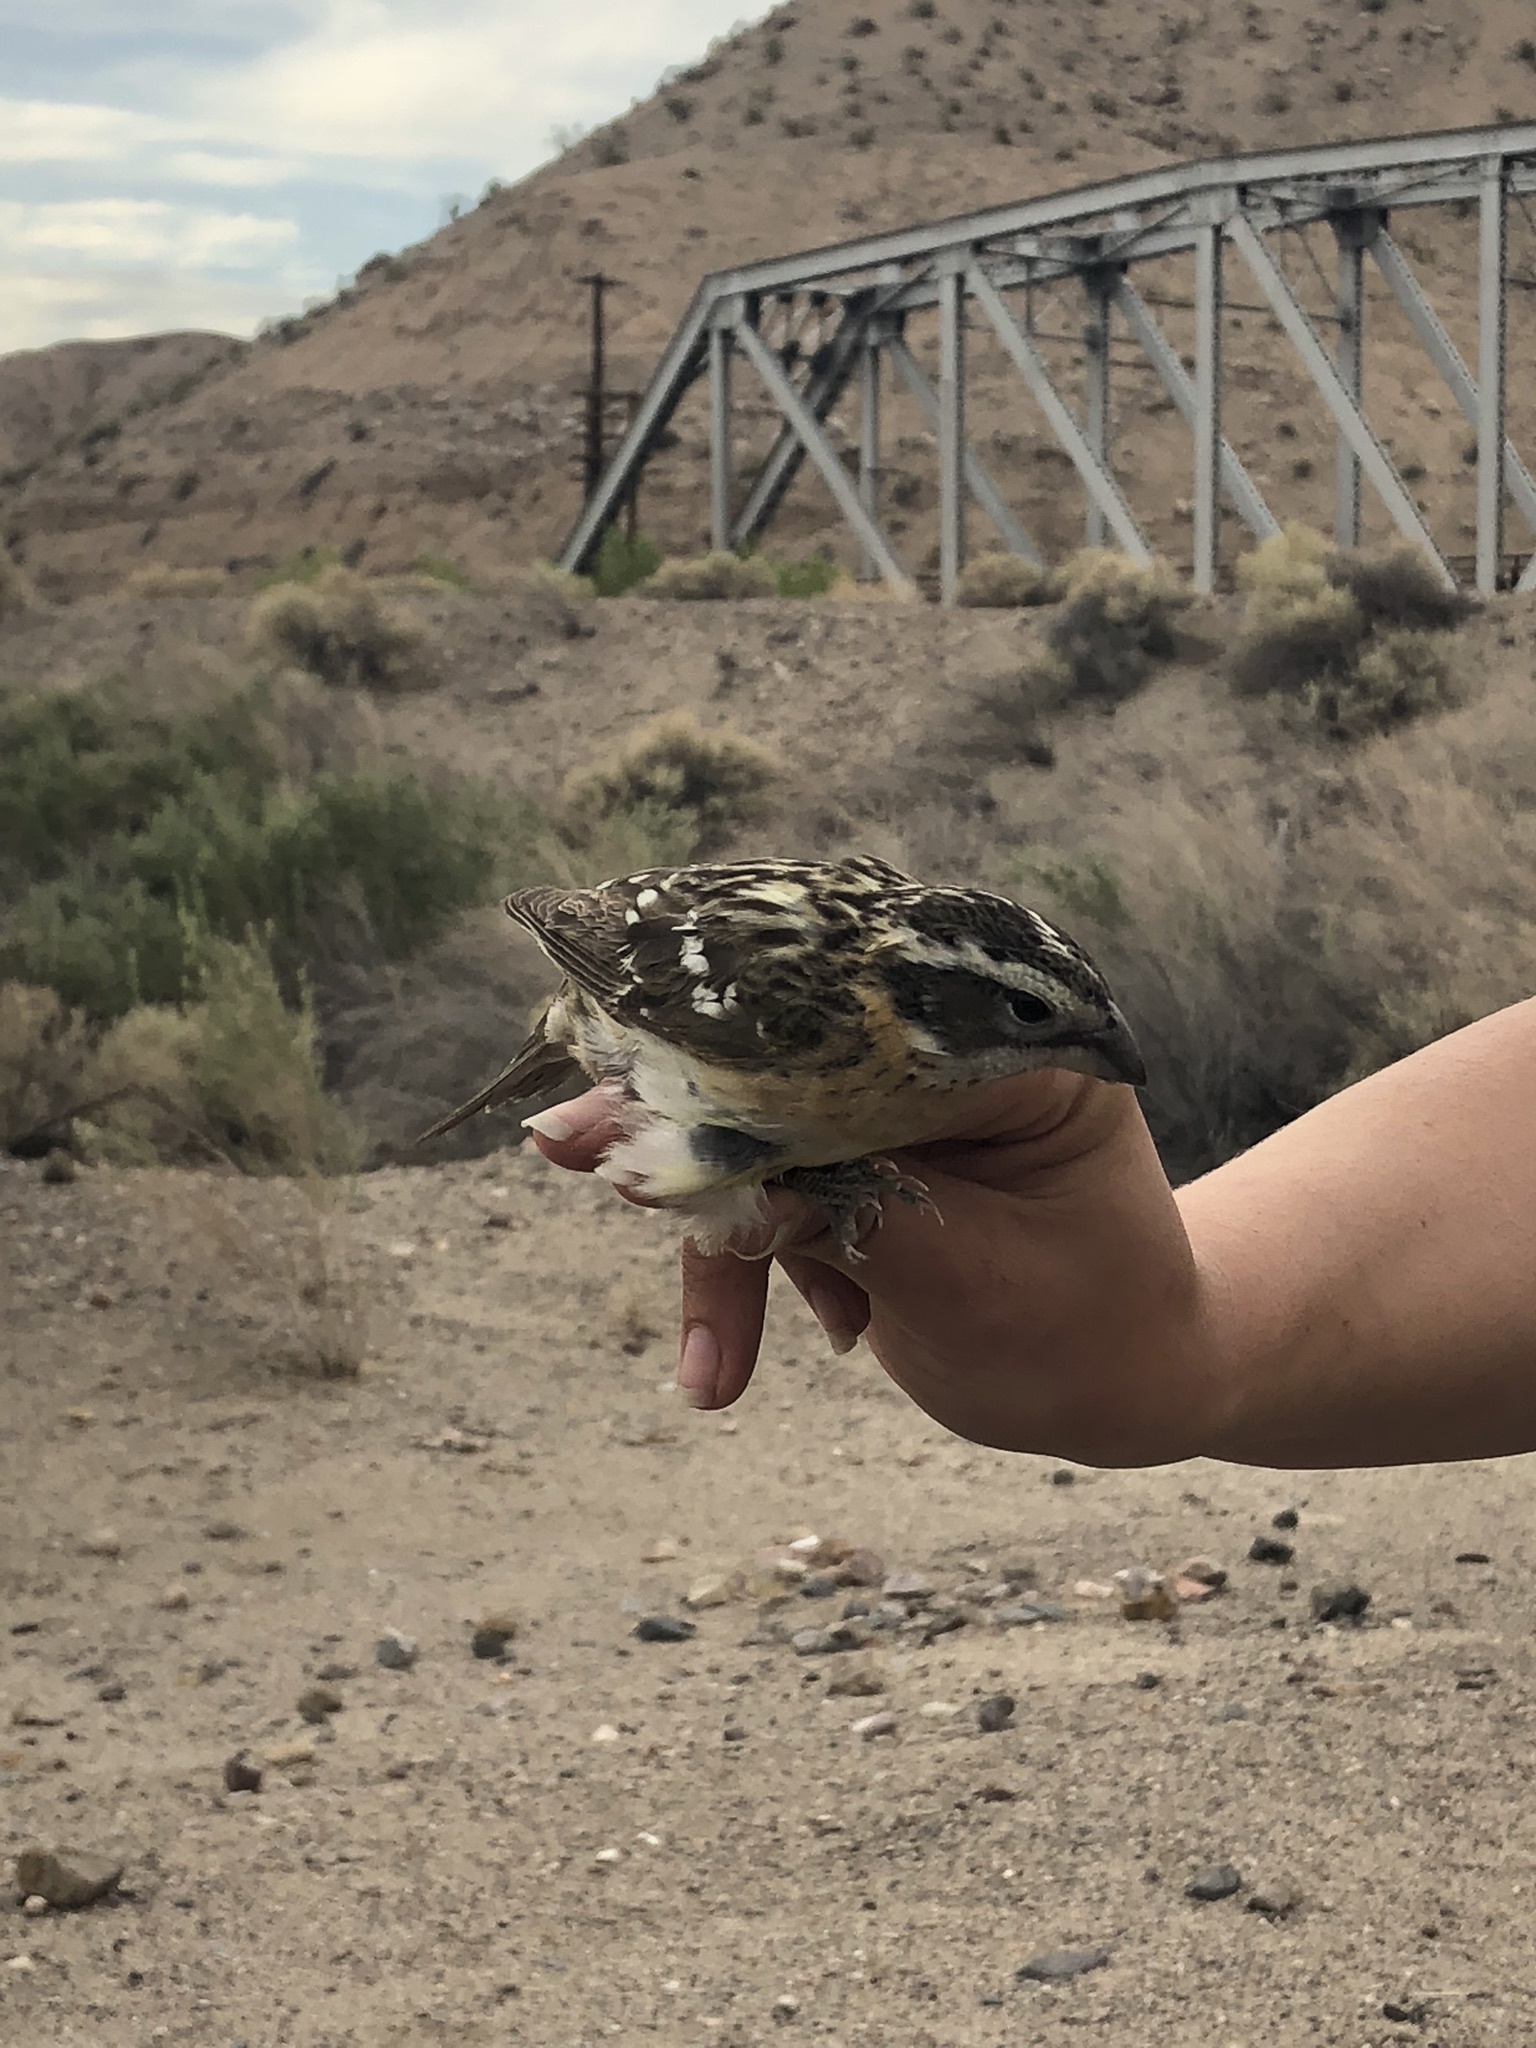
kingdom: Animalia
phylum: Chordata
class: Aves
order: Passeriformes
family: Cardinalidae
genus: Pheucticus
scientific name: Pheucticus melanocephalus
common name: Black-headed grosbeak
